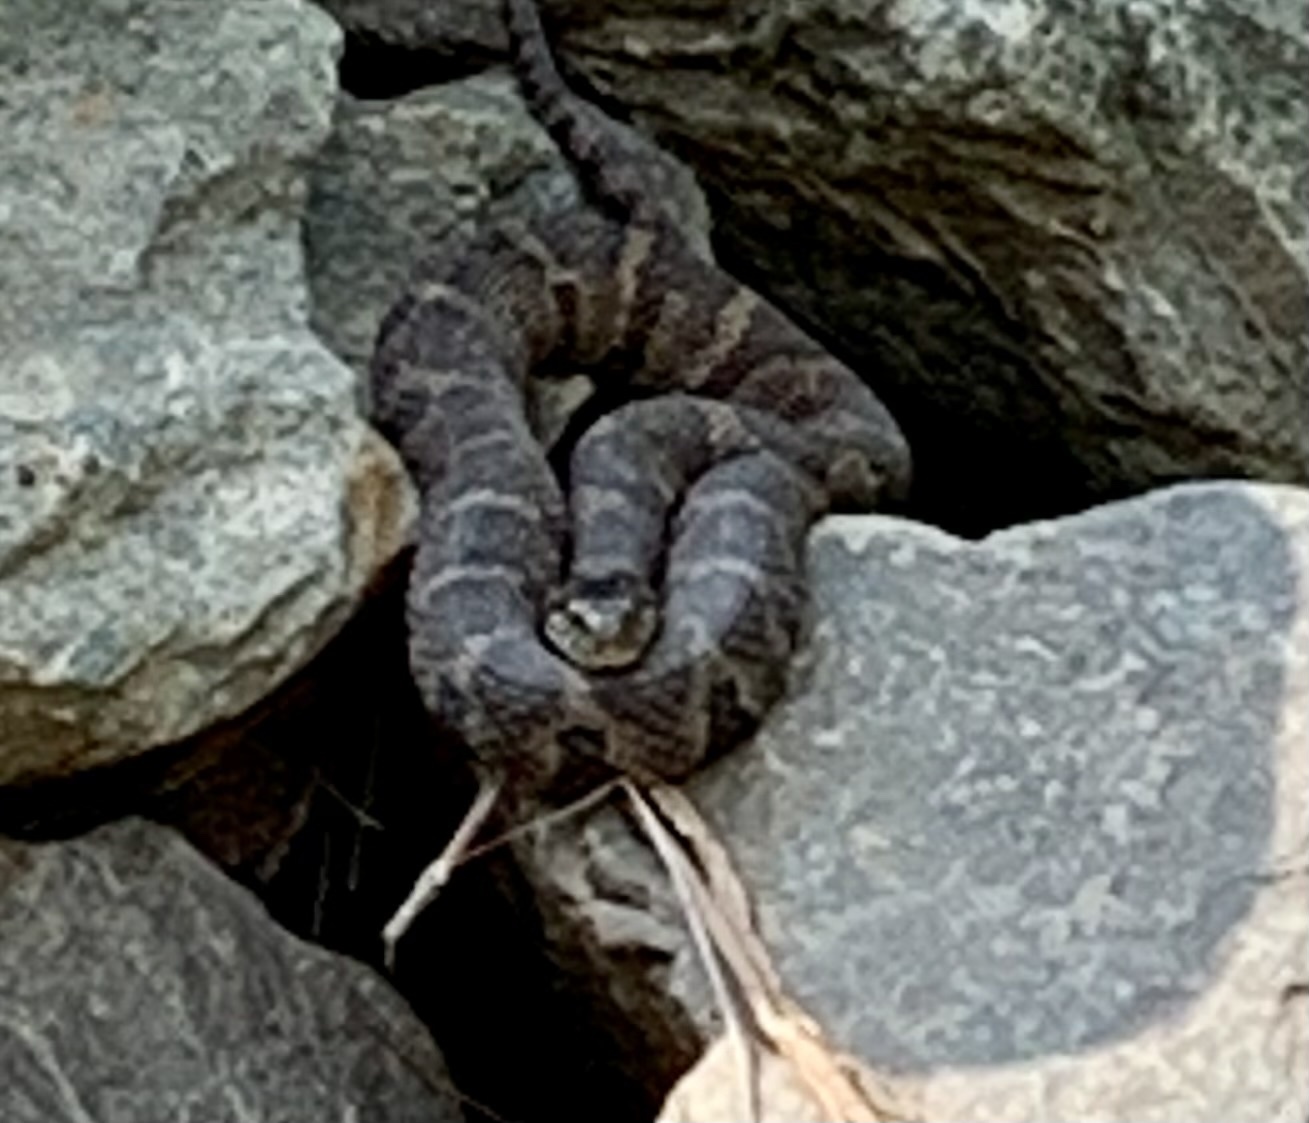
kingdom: Animalia
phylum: Chordata
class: Squamata
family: Colubridae
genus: Nerodia
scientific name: Nerodia sipedon
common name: Northern water snake
